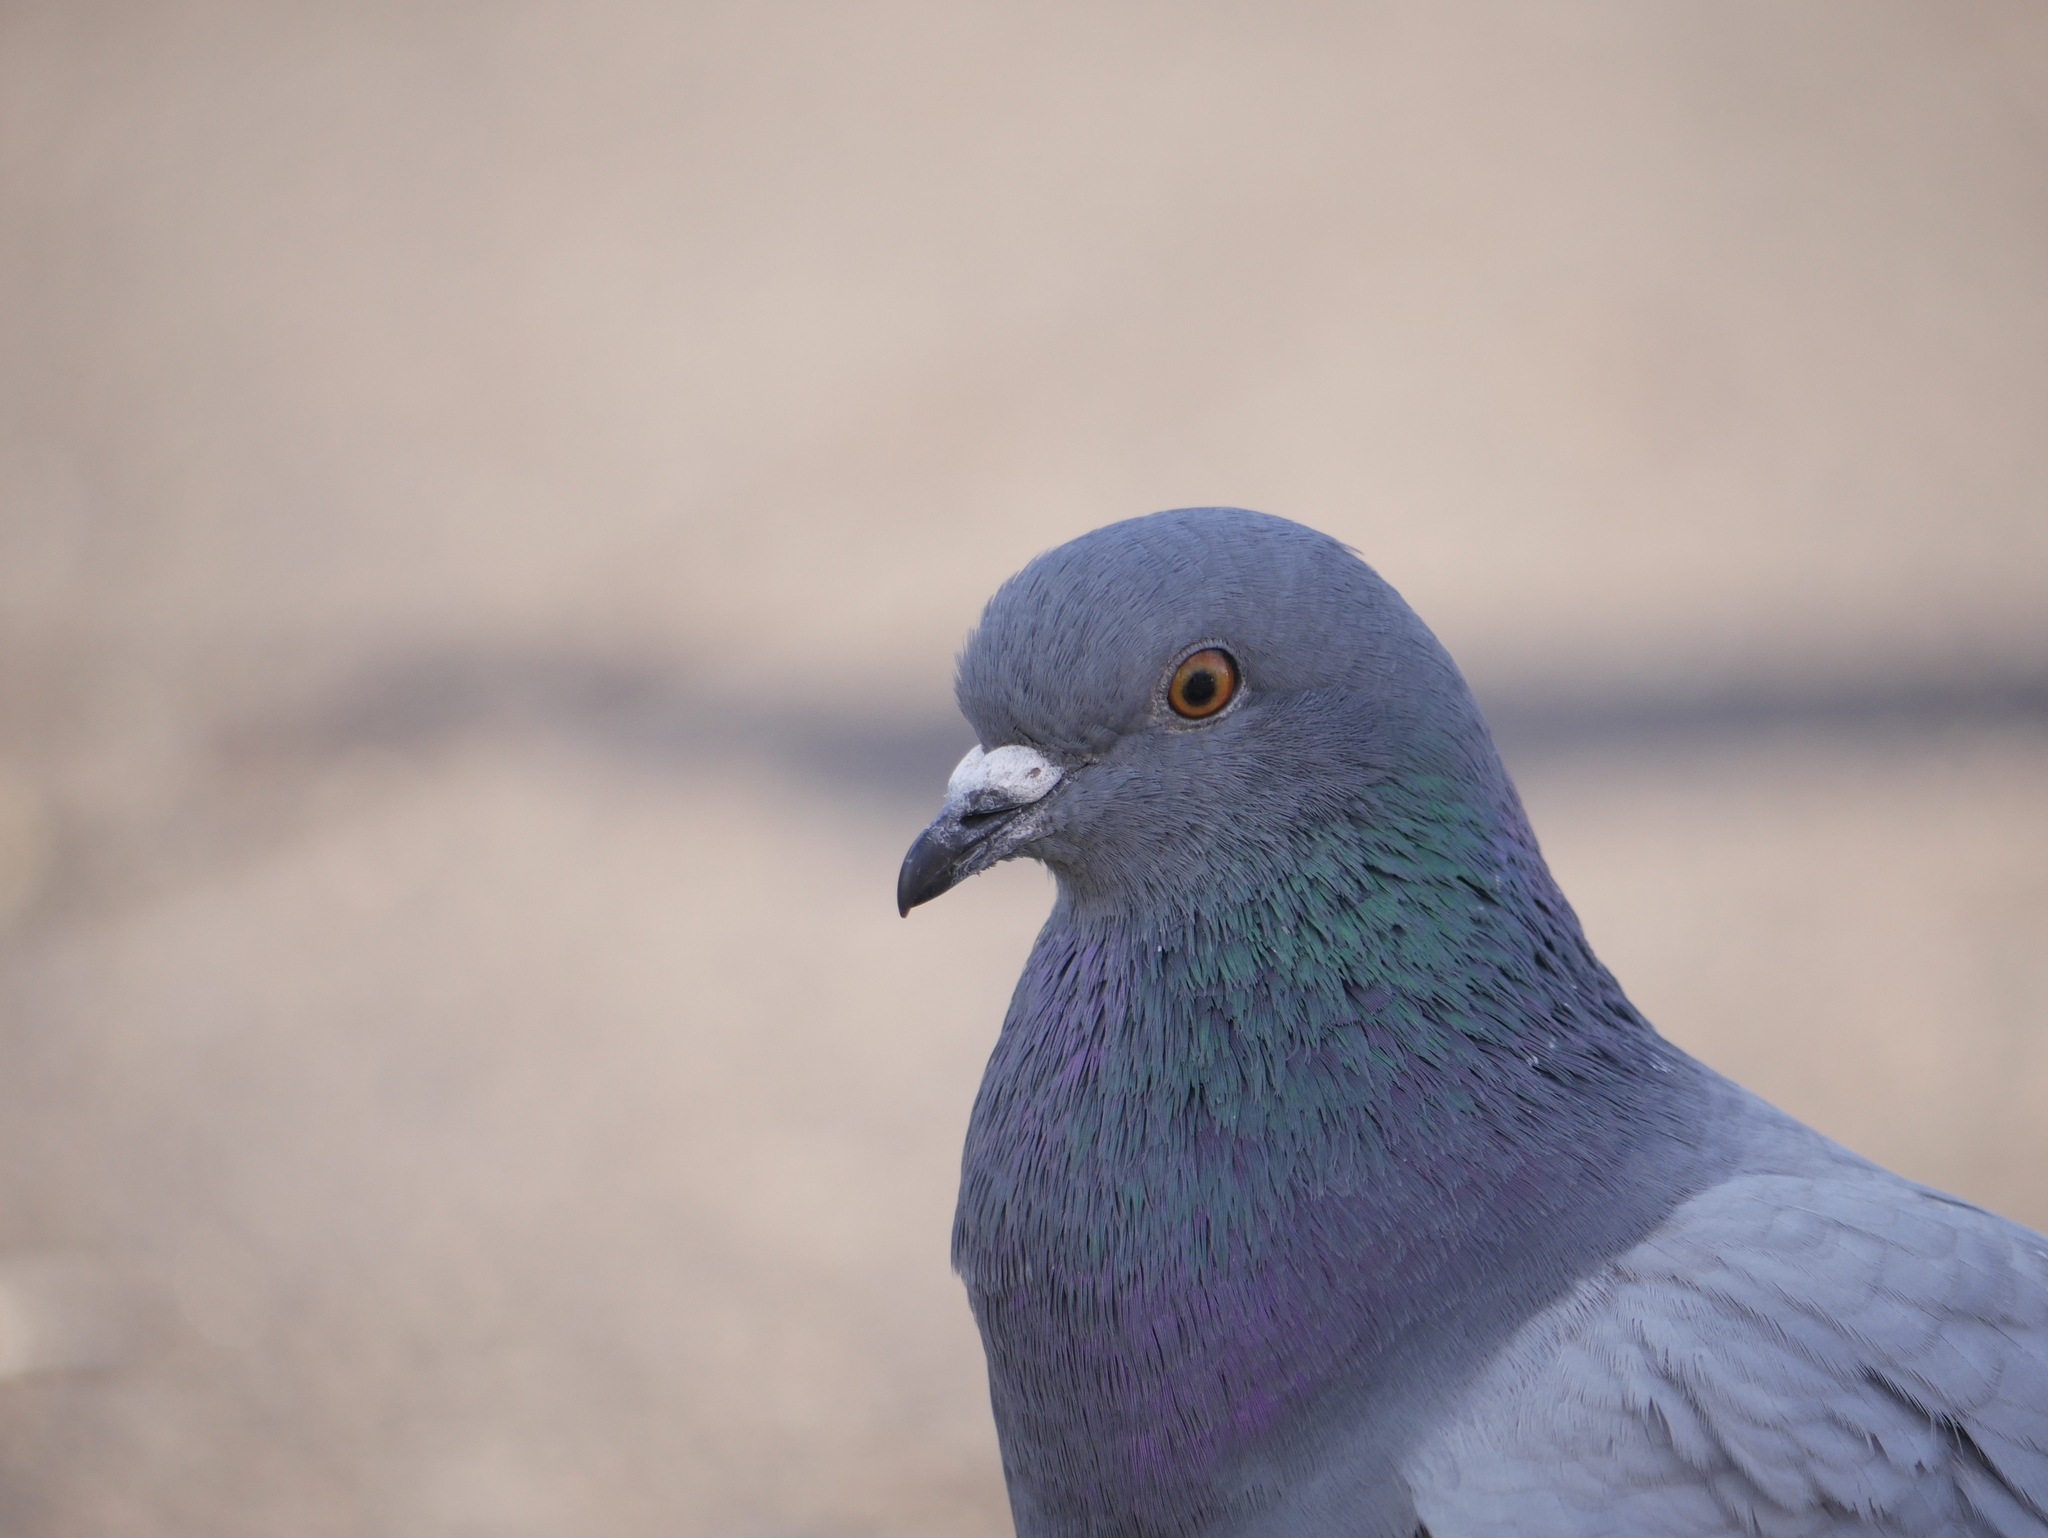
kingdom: Animalia
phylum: Chordata
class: Aves
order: Columbiformes
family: Columbidae
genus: Columba
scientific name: Columba livia
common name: Rock pigeon
